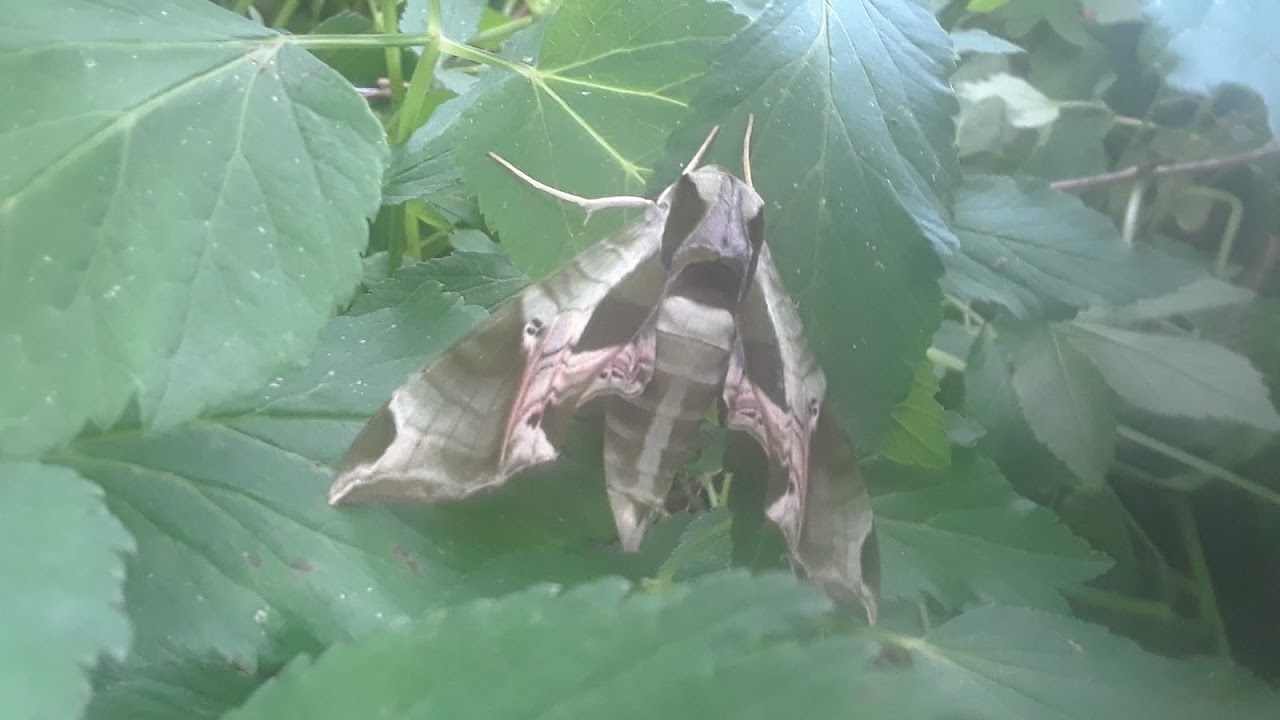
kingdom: Animalia
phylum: Arthropoda
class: Insecta
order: Lepidoptera
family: Sphingidae
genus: Eumorpha
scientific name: Eumorpha pandorus
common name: Pandora sphinx
